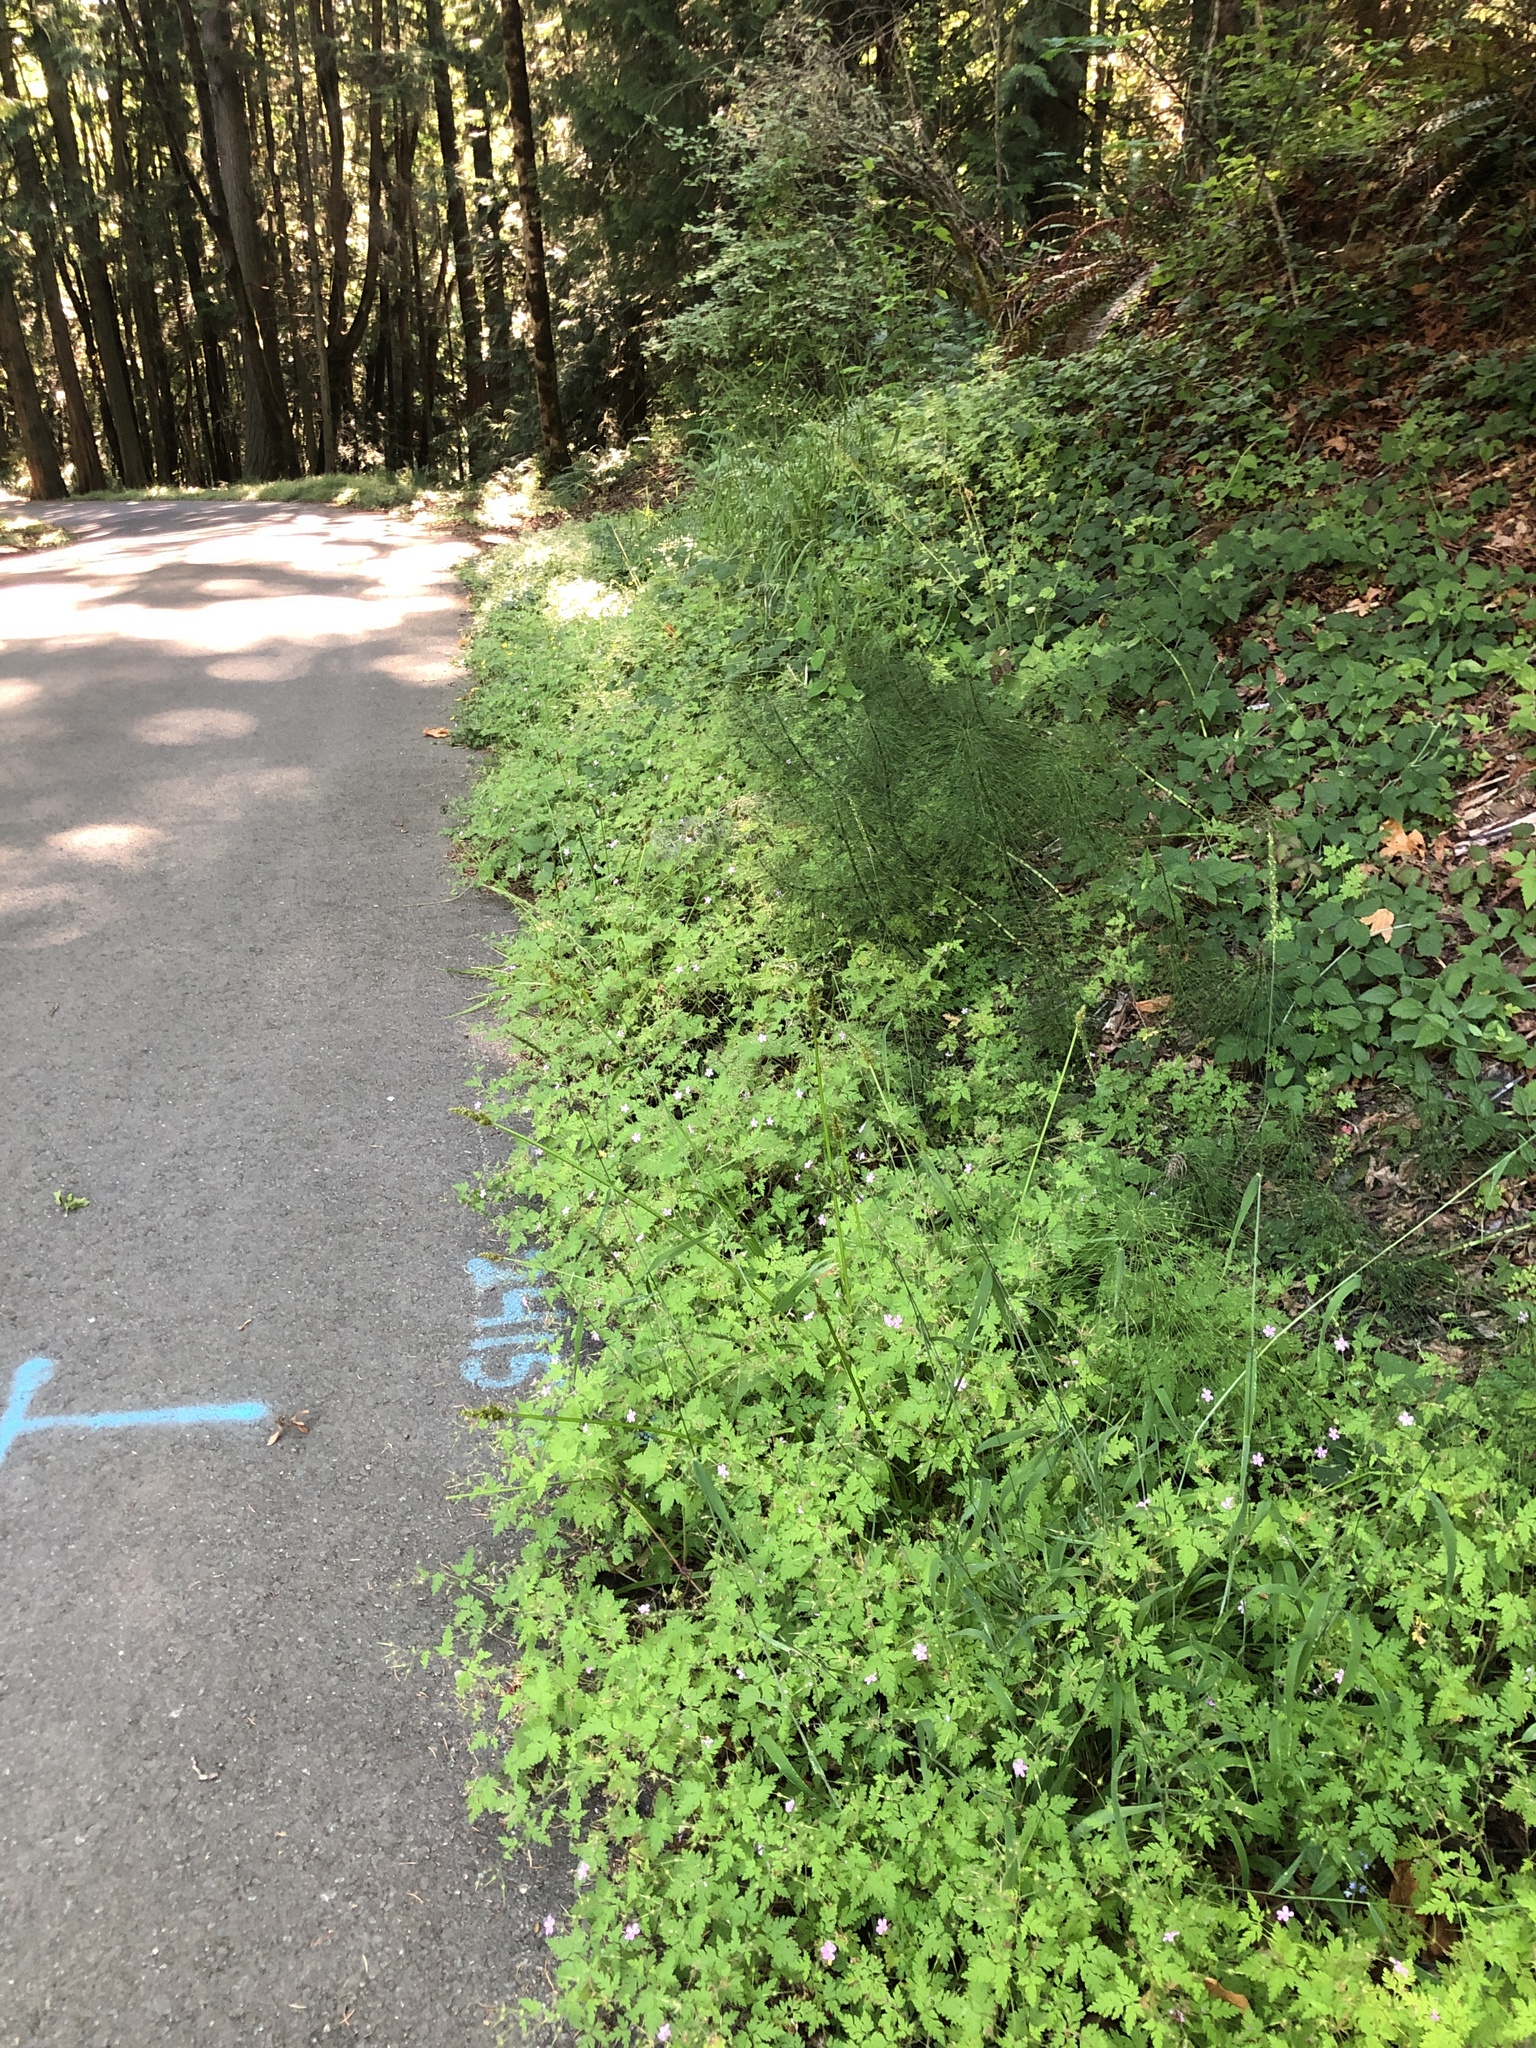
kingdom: Plantae
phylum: Tracheophyta
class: Liliopsida
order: Poales
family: Cyperaceae
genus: Carex
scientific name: Carex stipata
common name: Awl-fruited sedge
